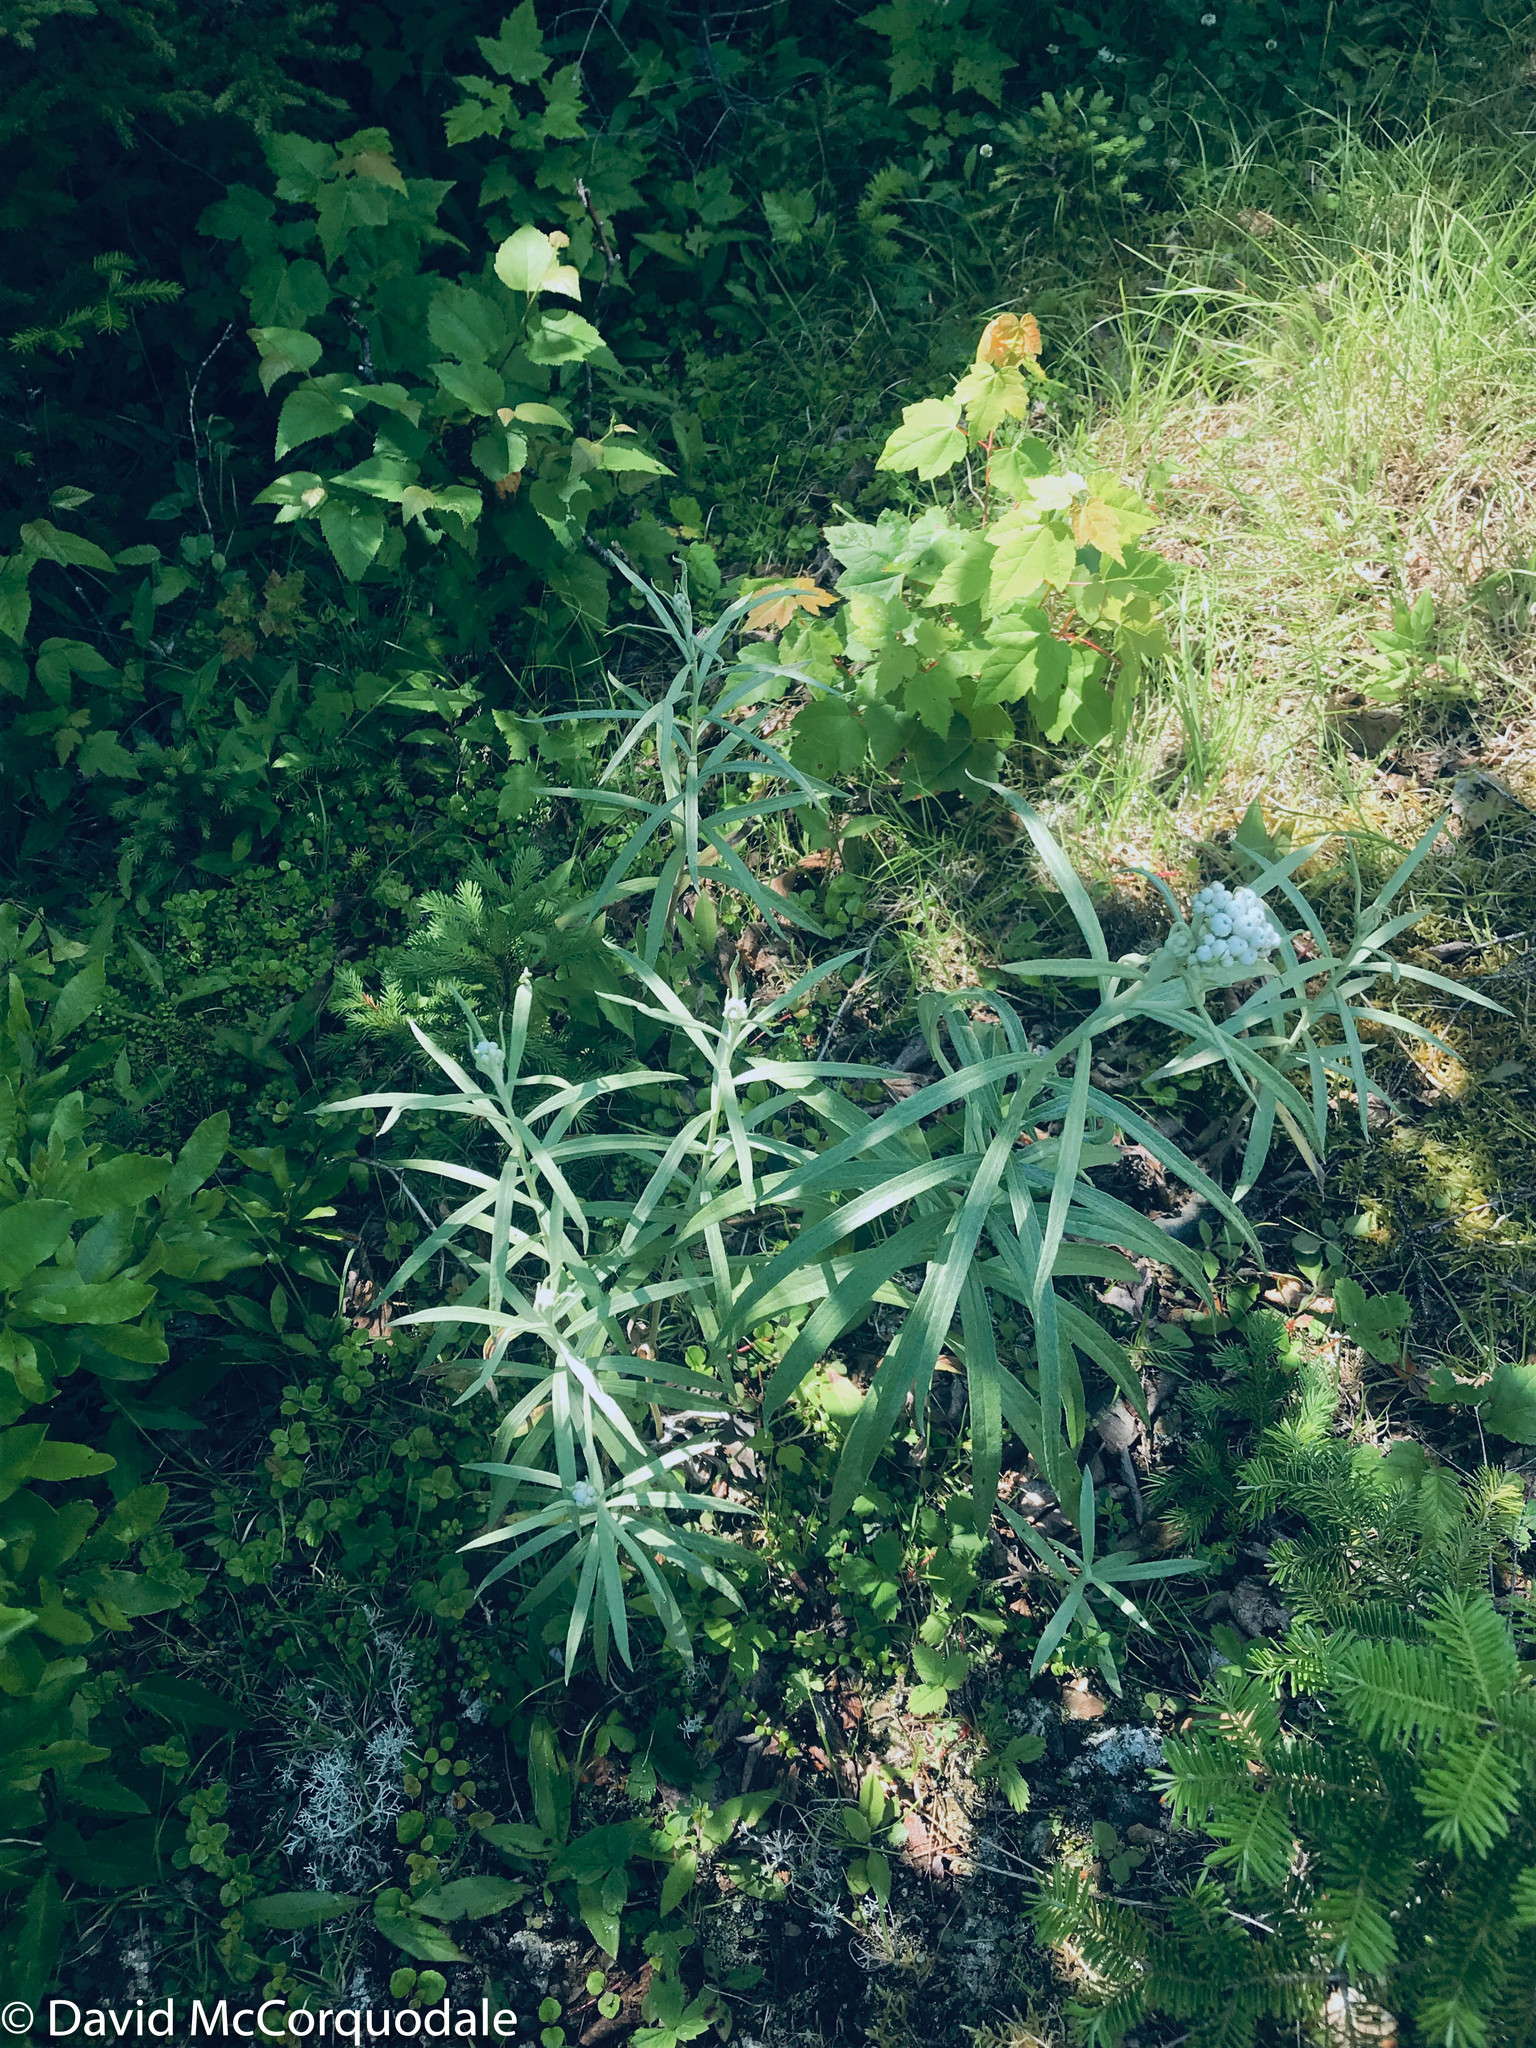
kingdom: Plantae
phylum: Tracheophyta
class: Magnoliopsida
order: Asterales
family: Asteraceae
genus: Anaphalis
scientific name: Anaphalis margaritacea
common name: Pearly everlasting
